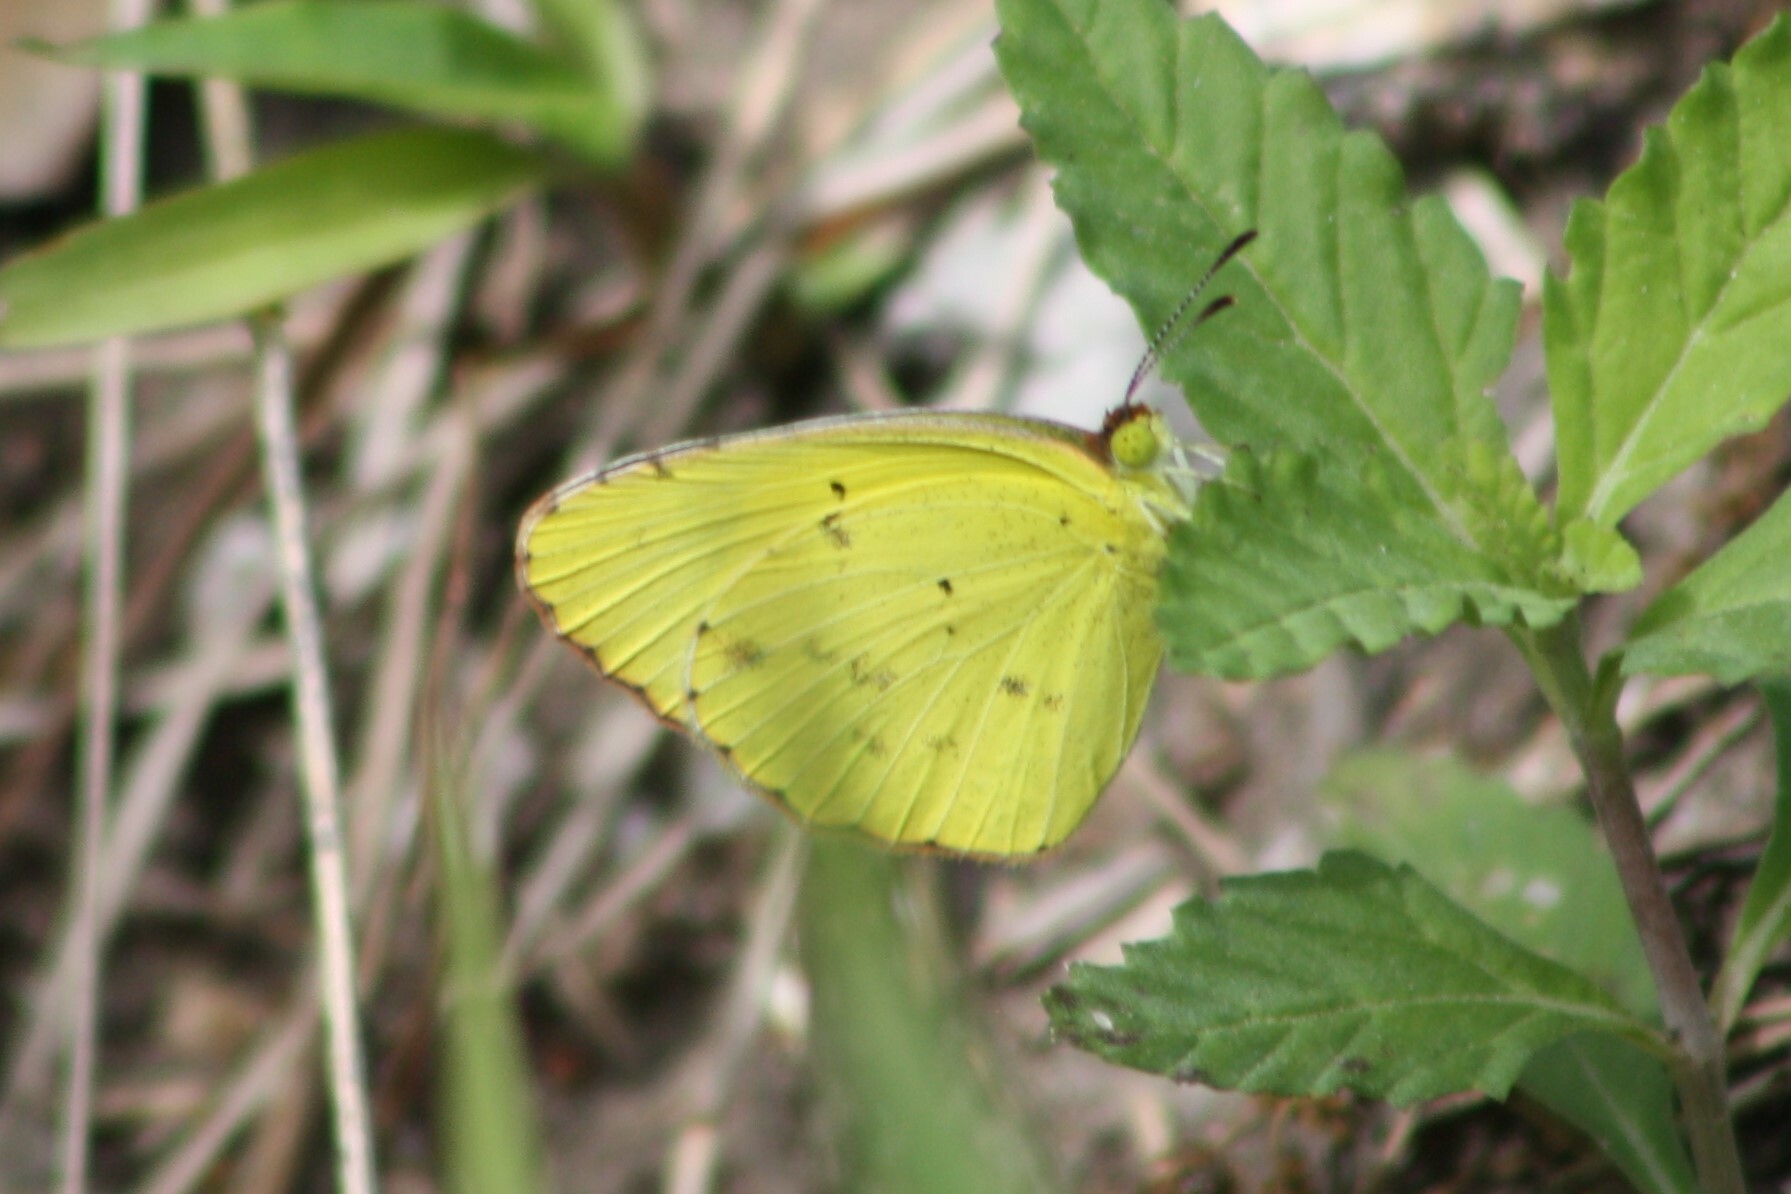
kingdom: Animalia
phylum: Arthropoda
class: Insecta
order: Lepidoptera
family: Pieridae
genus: Pyrisitia
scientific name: Pyrisitia lisa
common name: Little yellow
